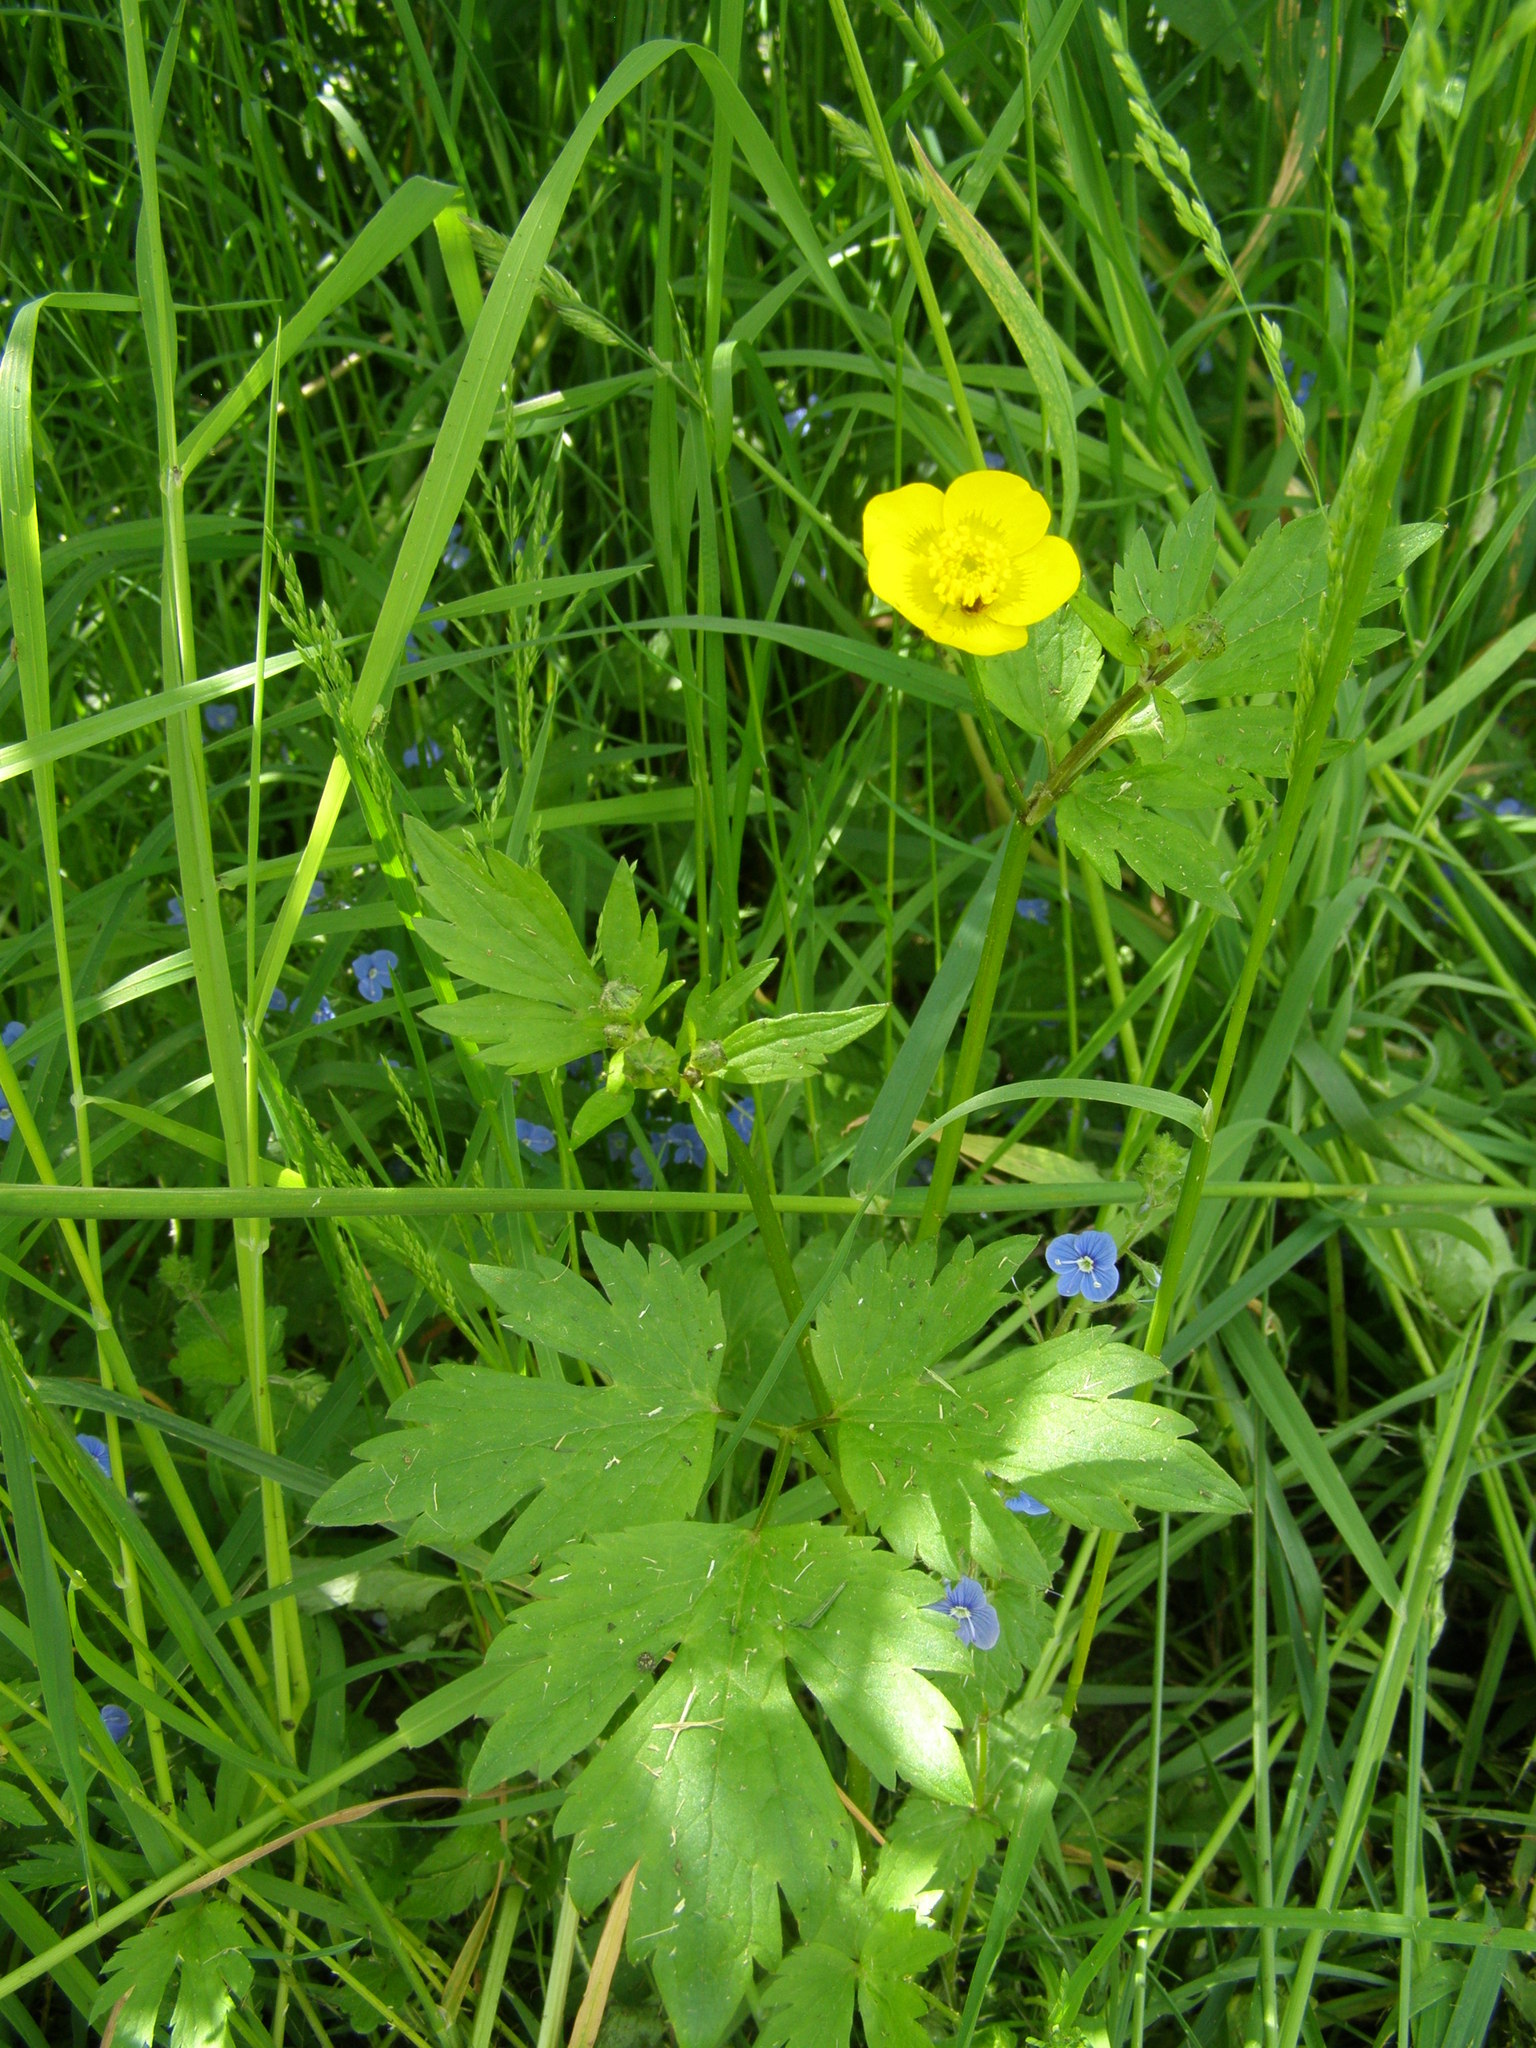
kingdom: Plantae
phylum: Tracheophyta
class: Magnoliopsida
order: Ranunculales
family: Ranunculaceae
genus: Ranunculus
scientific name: Ranunculus repens
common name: Creeping buttercup
